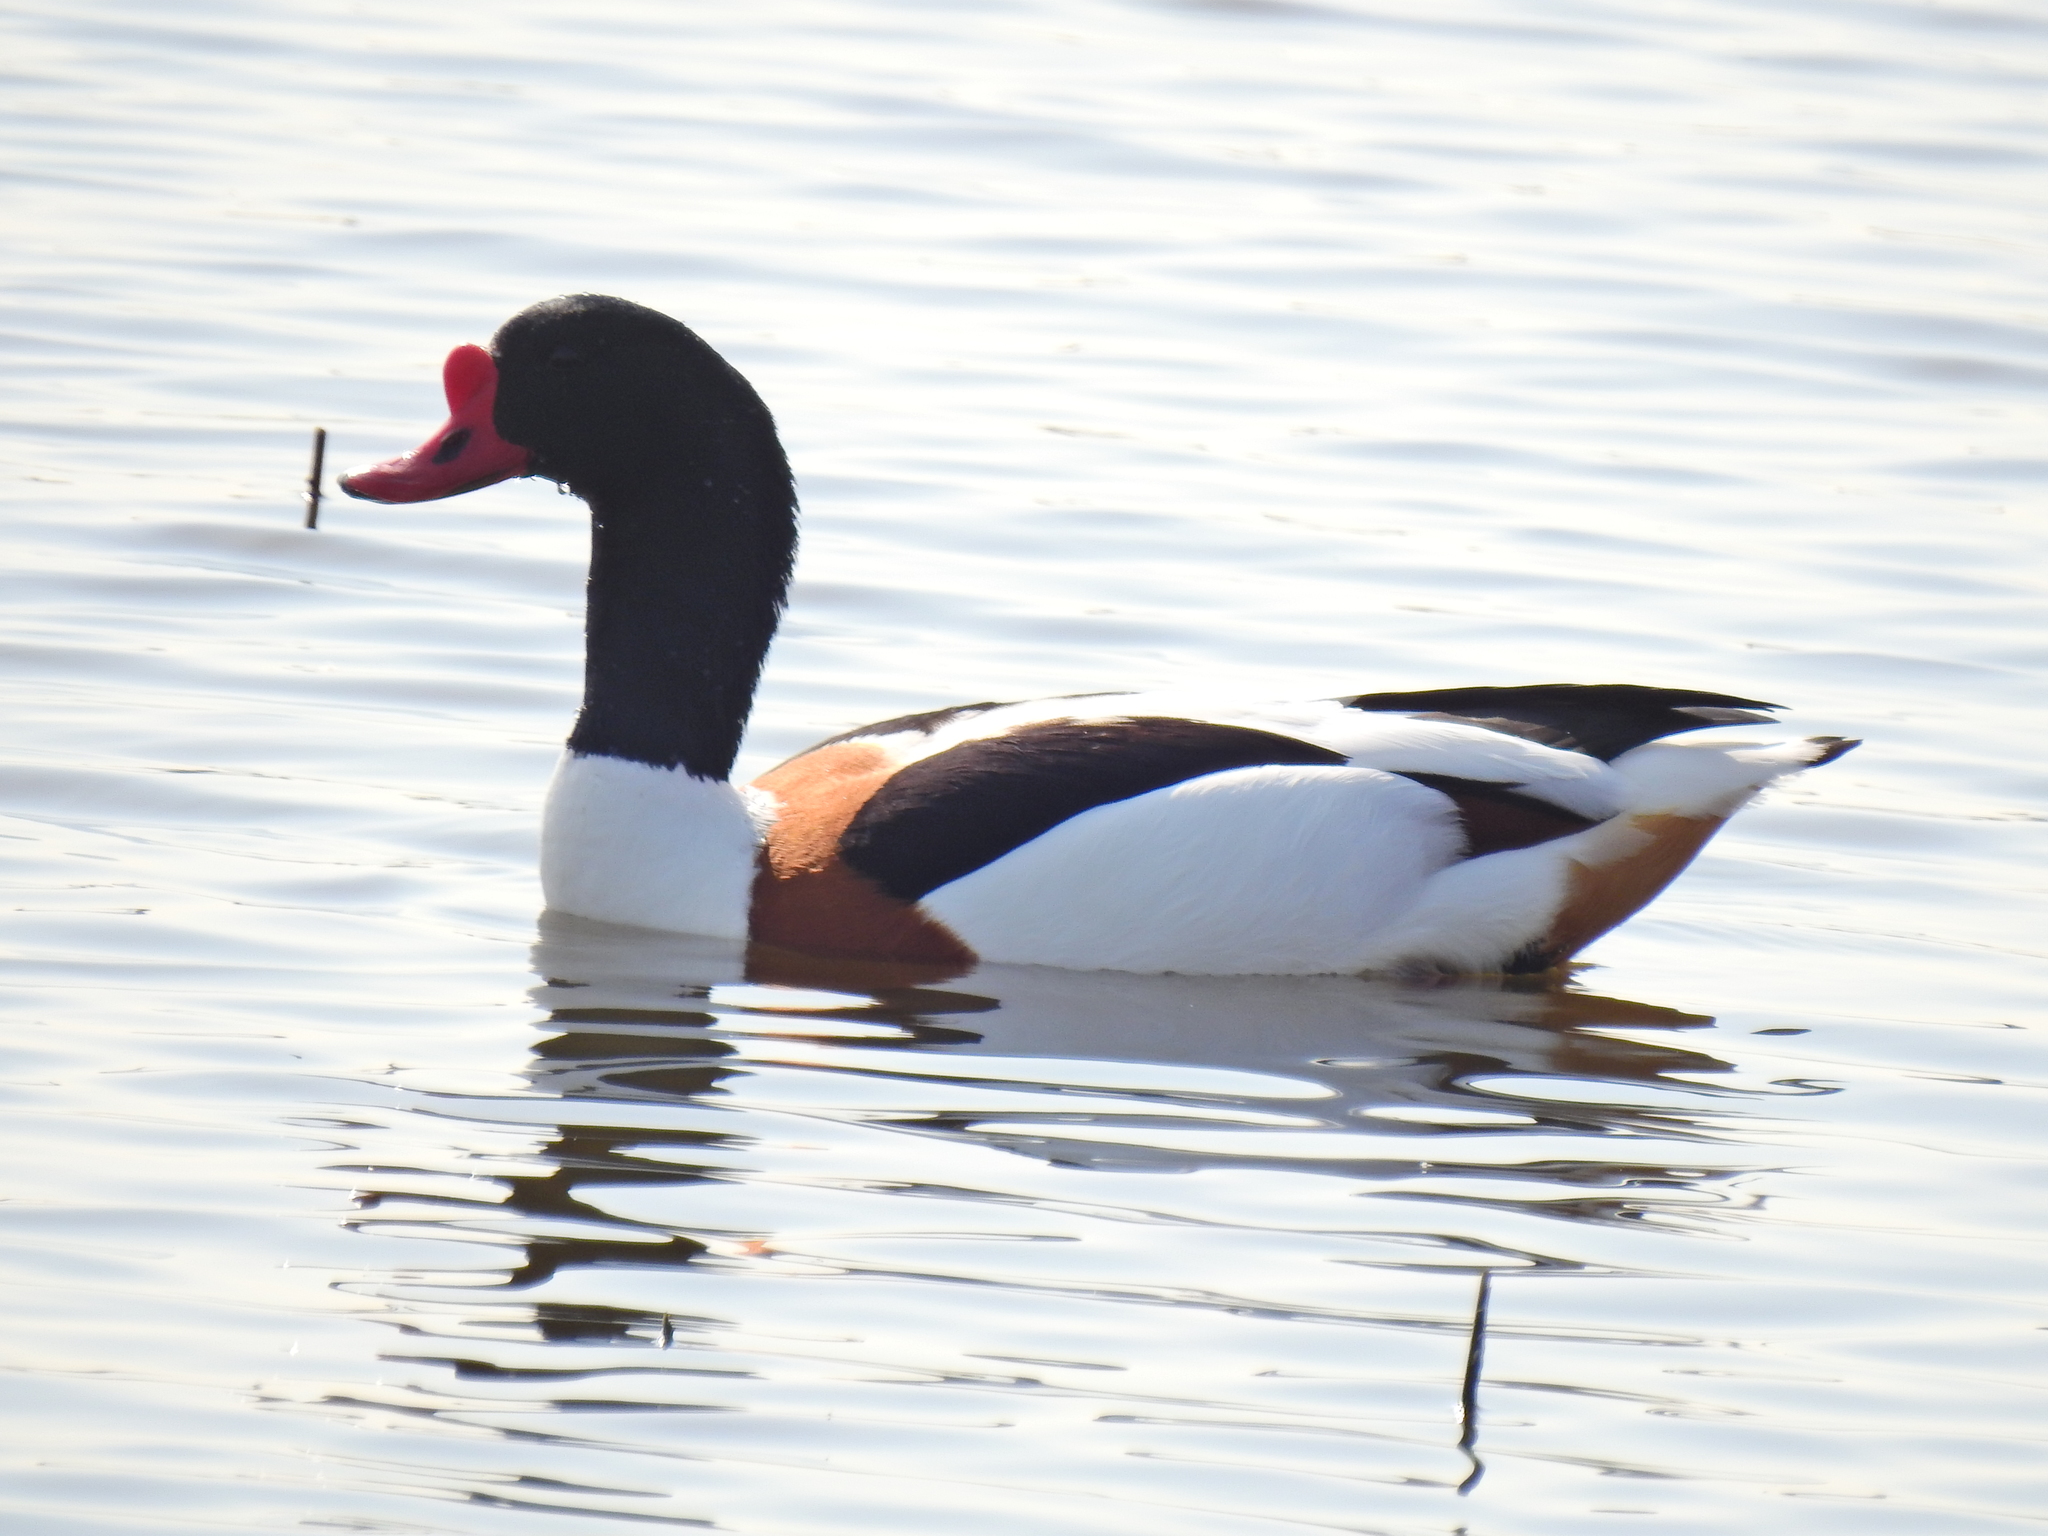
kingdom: Animalia
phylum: Chordata
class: Aves
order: Anseriformes
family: Anatidae
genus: Tadorna
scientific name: Tadorna tadorna
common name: Common shelduck
